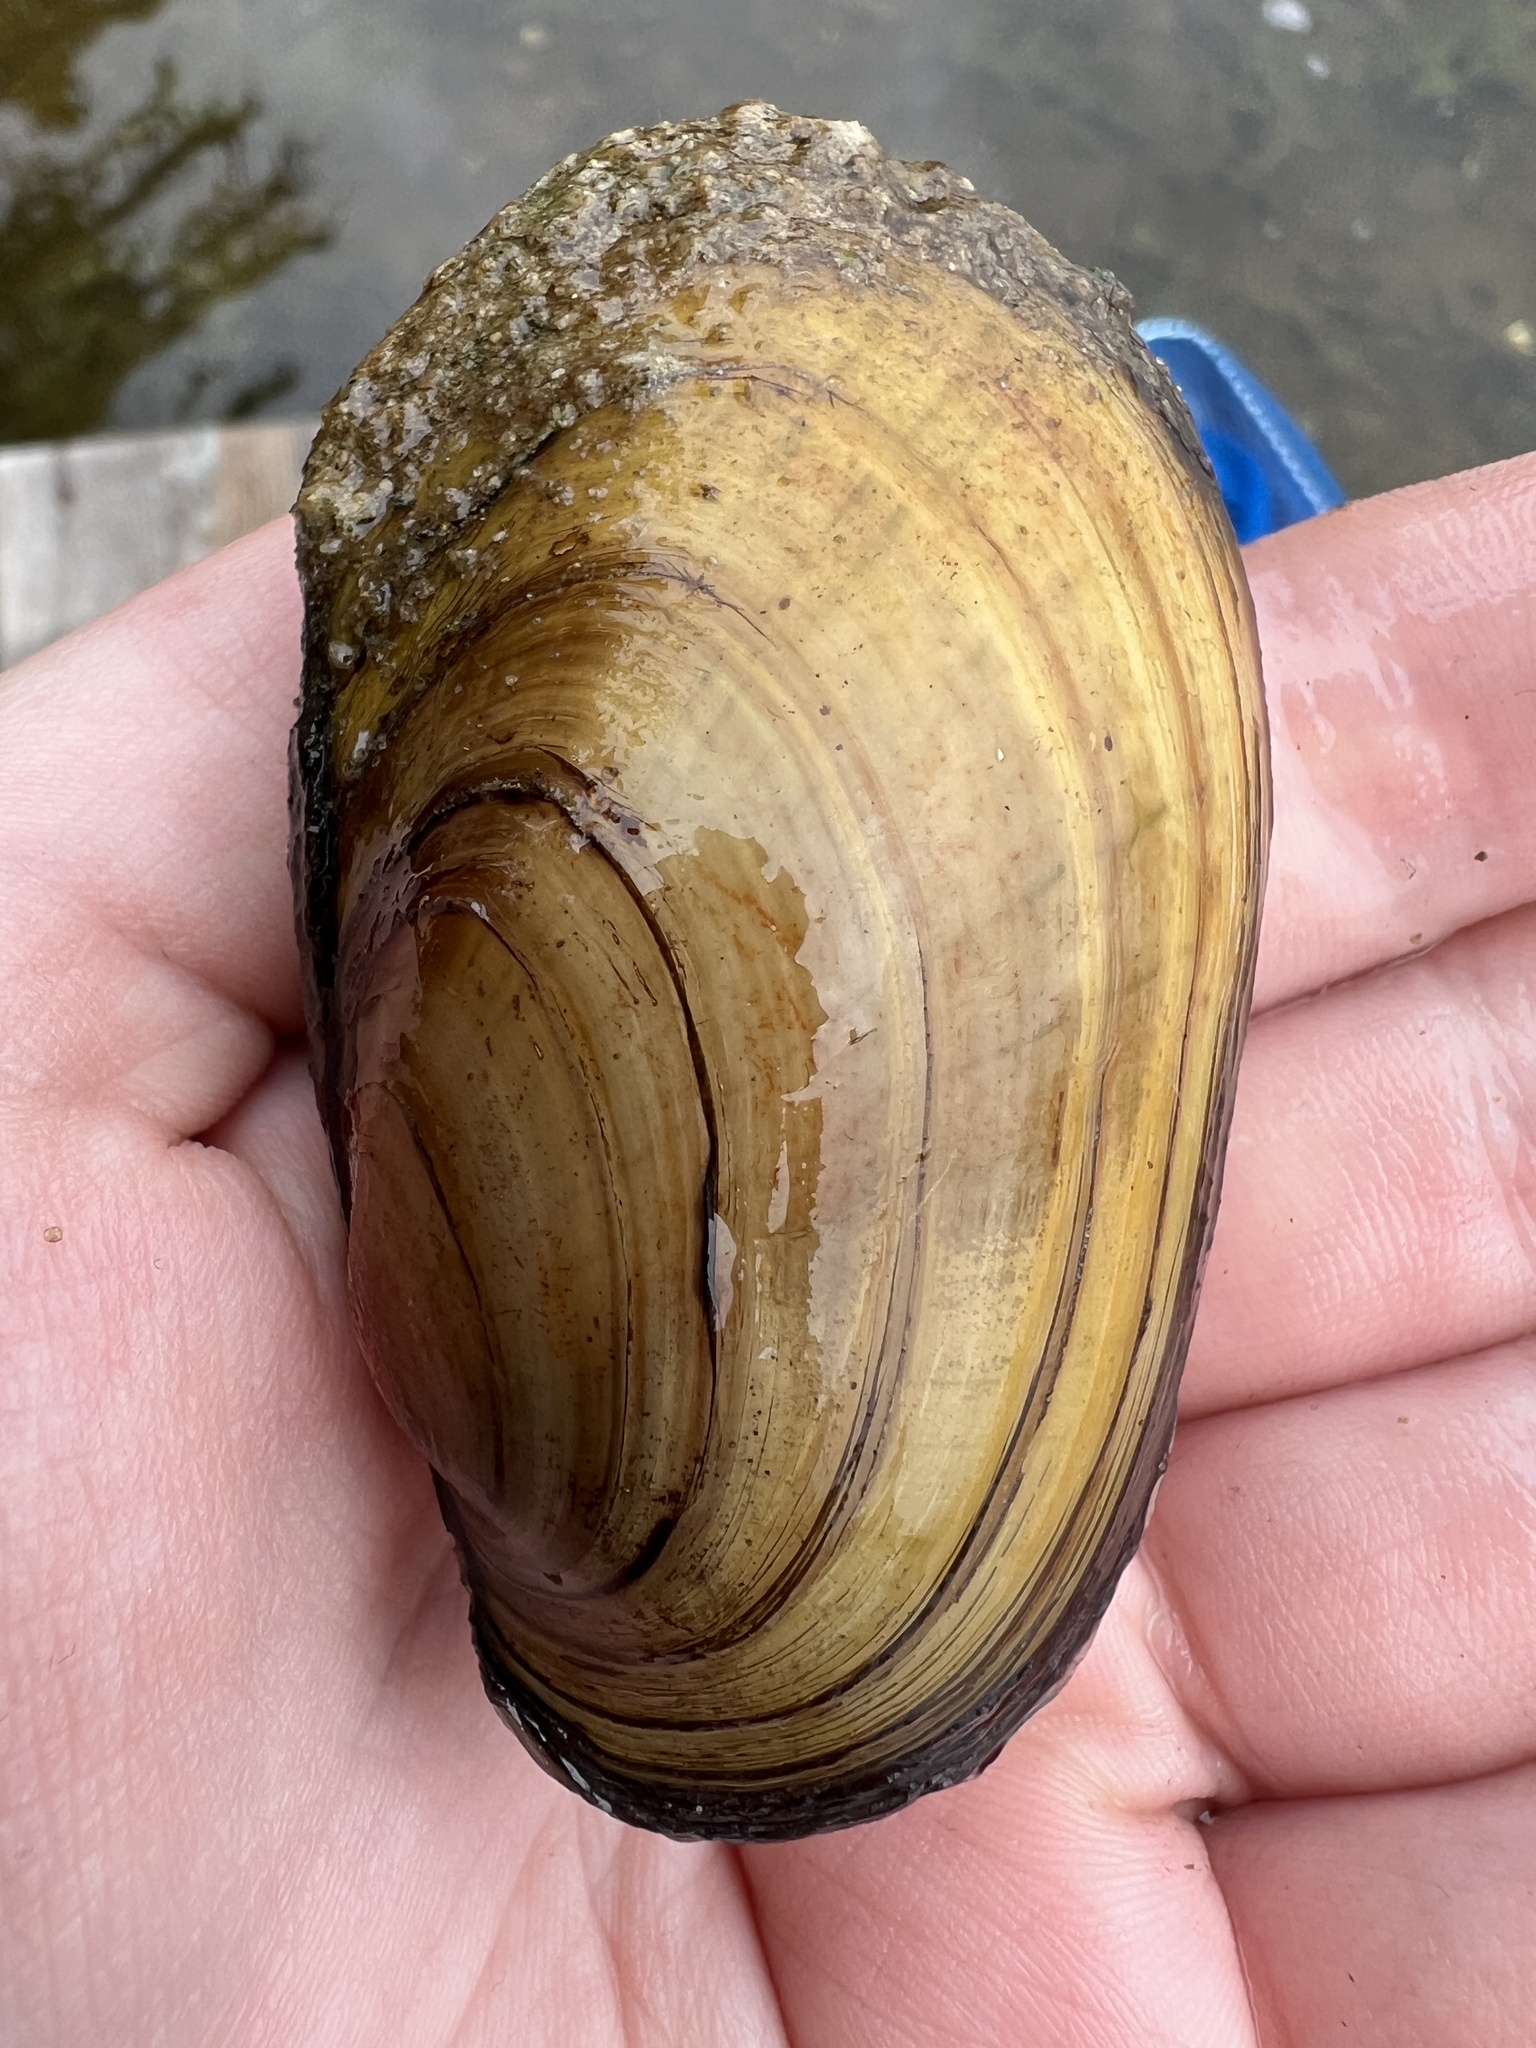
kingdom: Animalia
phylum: Mollusca
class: Bivalvia
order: Unionida
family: Unionidae
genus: Lampsilis
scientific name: Lampsilis siliquoidea
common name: Fatmucket
